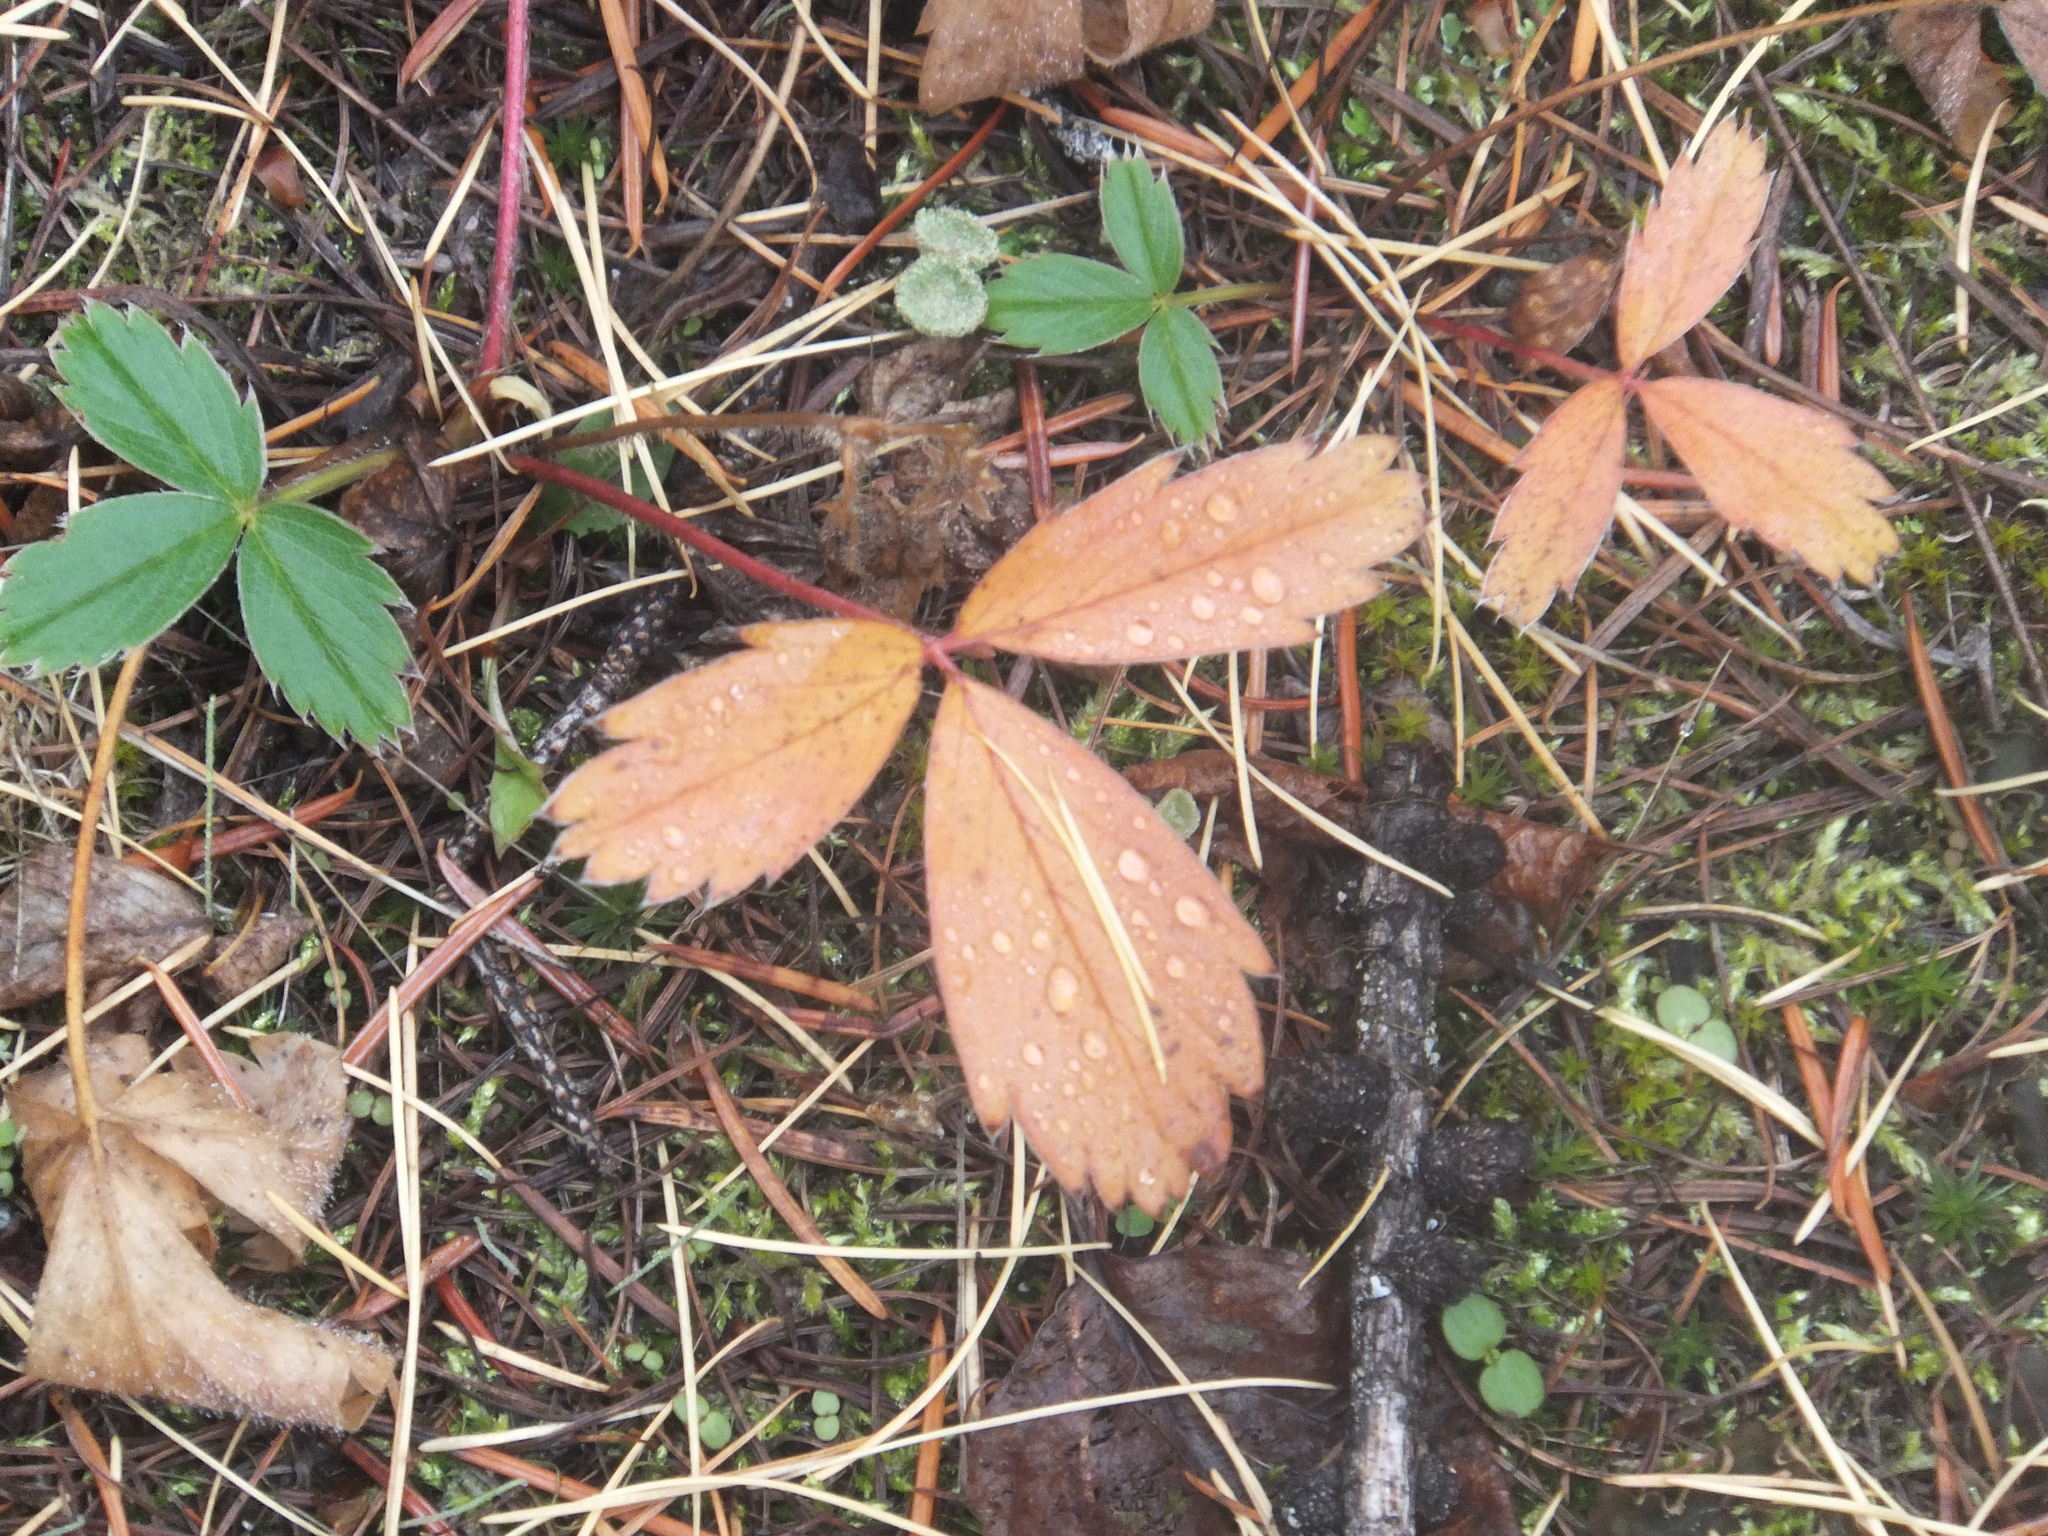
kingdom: Plantae
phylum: Tracheophyta
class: Magnoliopsida
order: Rosales
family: Rosaceae
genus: Fragaria
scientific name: Fragaria virginiana
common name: Thickleaved wild strawberry
